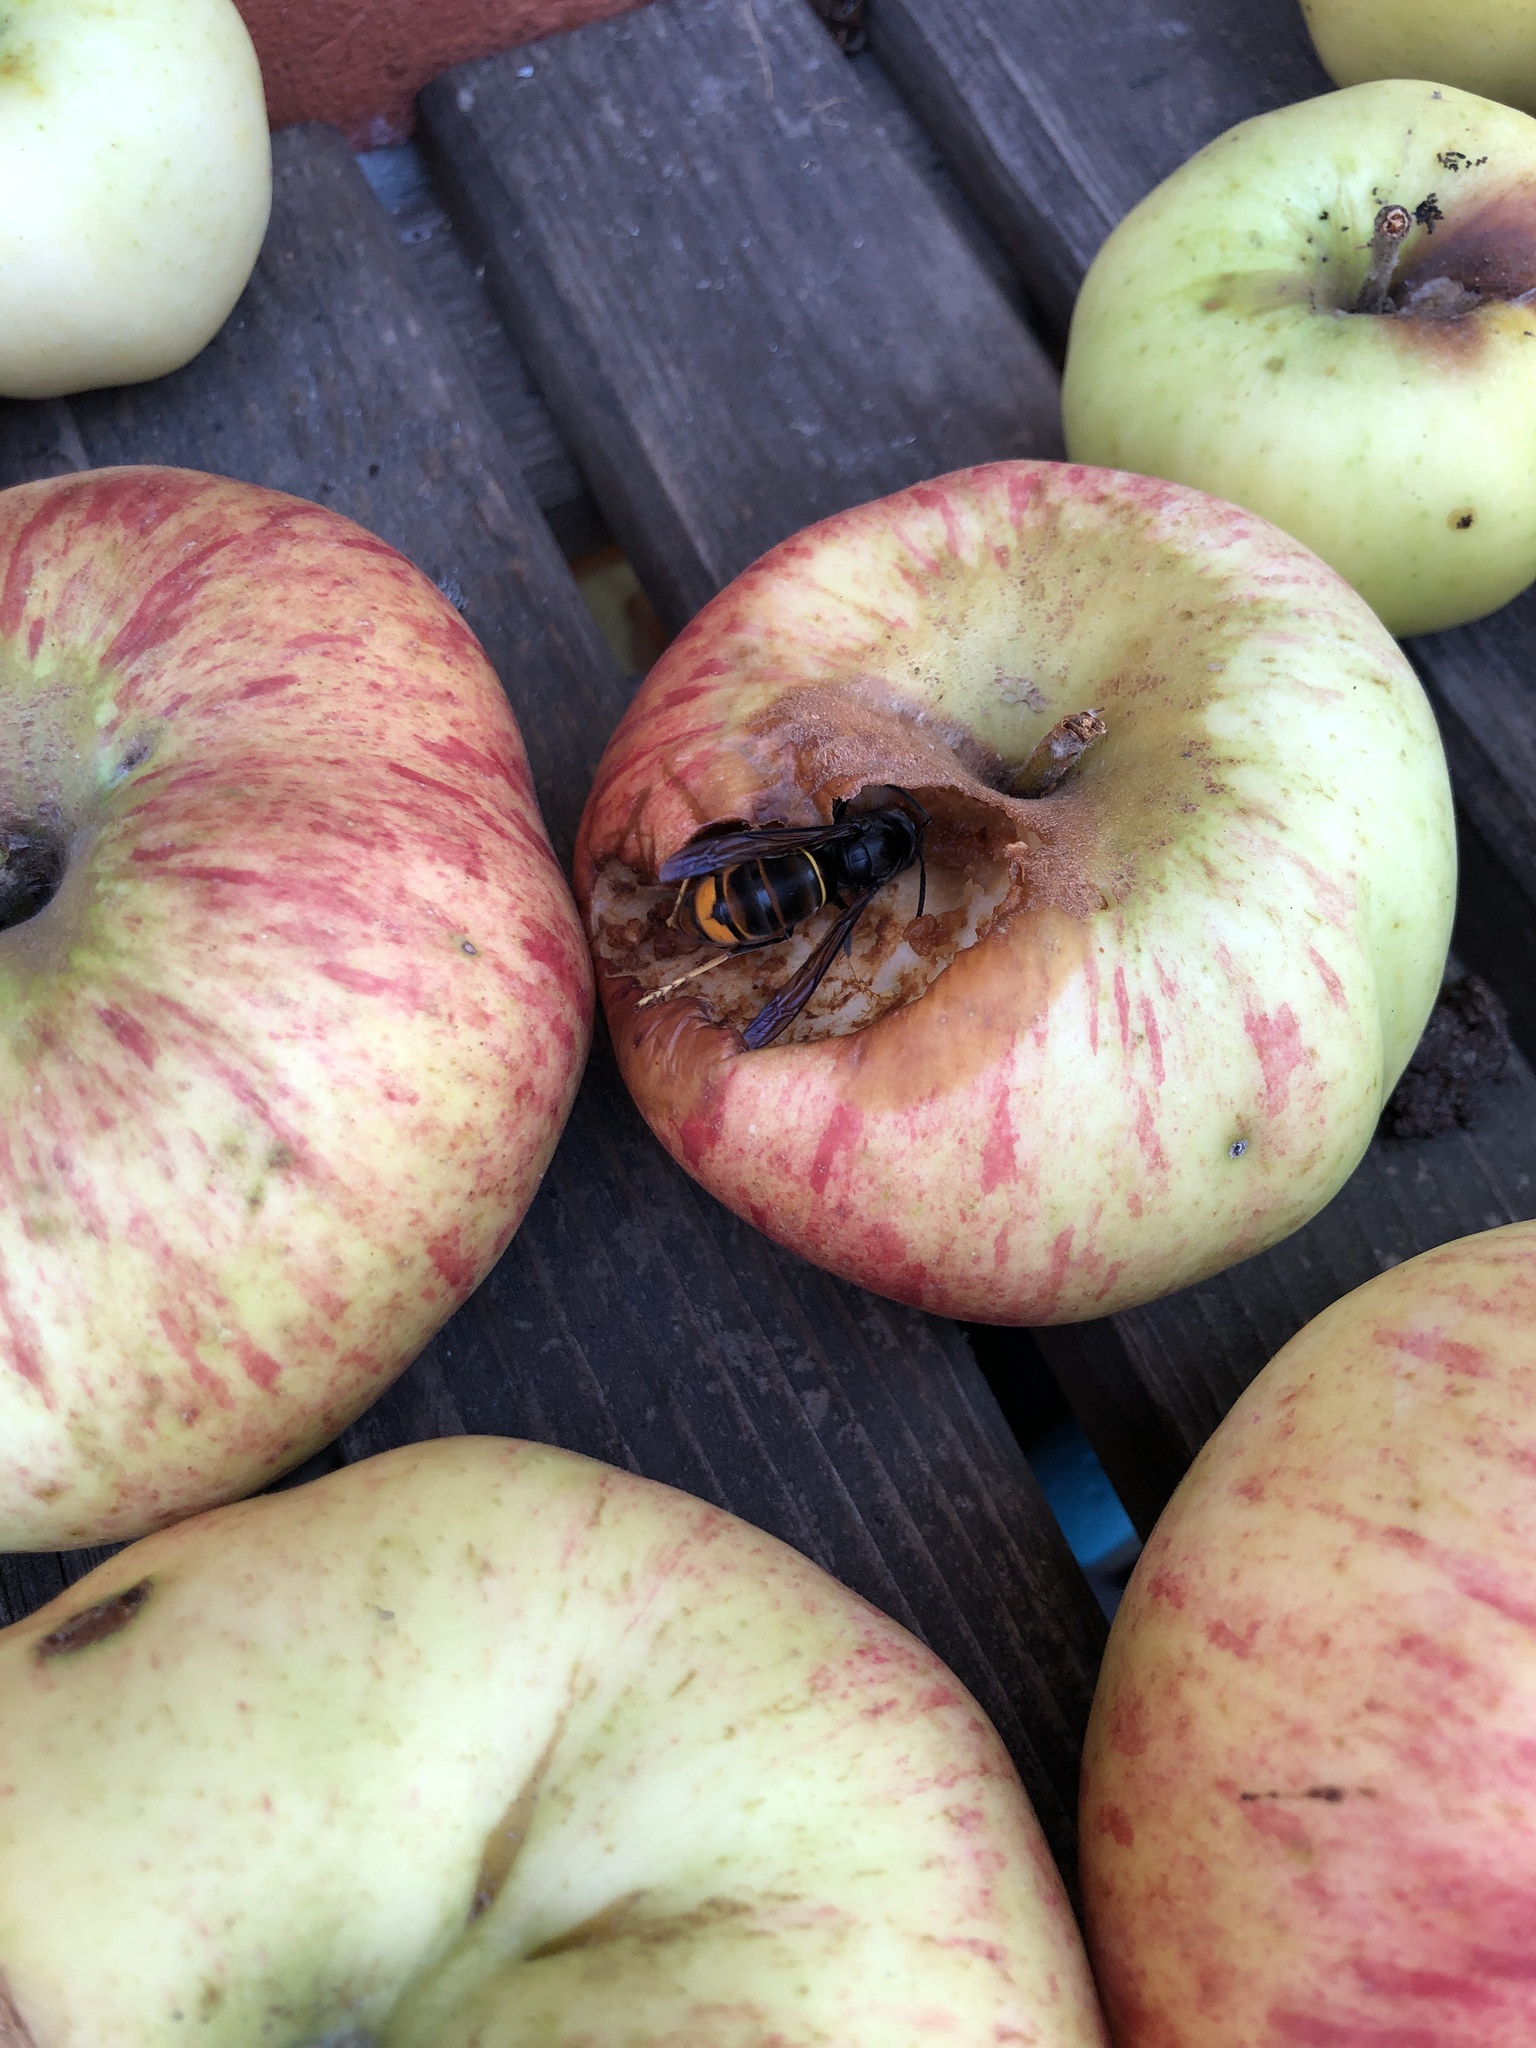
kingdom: Animalia
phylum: Arthropoda
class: Insecta
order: Hymenoptera
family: Vespidae
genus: Vespa
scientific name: Vespa velutina
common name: Asian hornet
